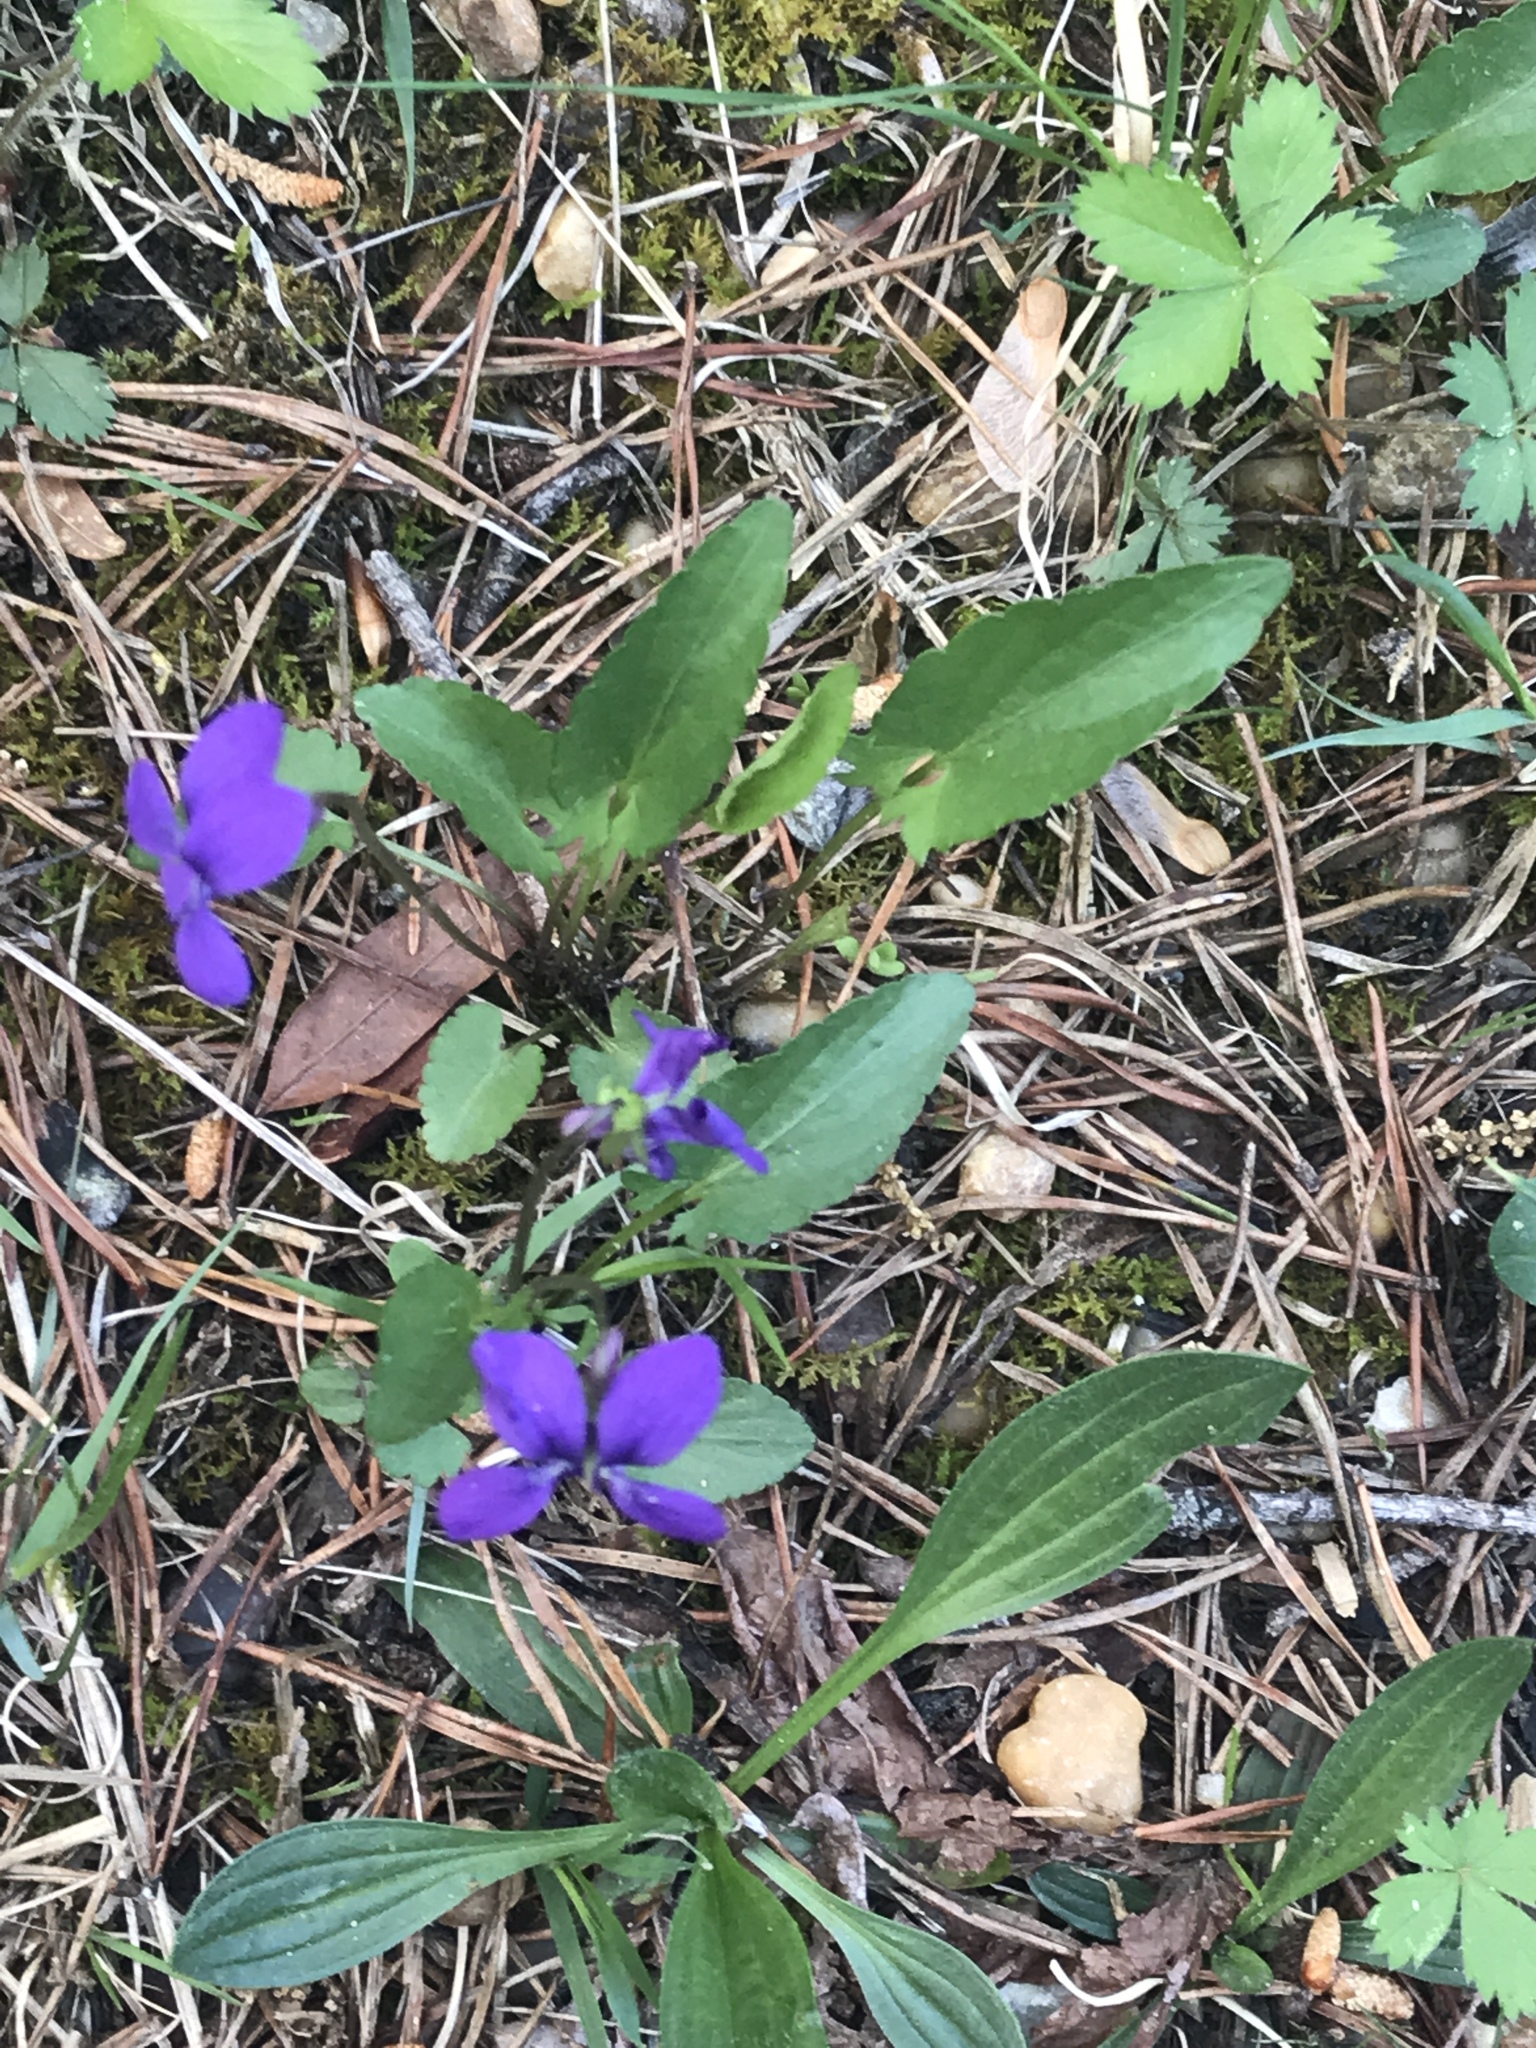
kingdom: Plantae
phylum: Tracheophyta
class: Magnoliopsida
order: Malpighiales
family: Violaceae
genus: Viola
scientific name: Viola sagittata
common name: Arrowhead violet
